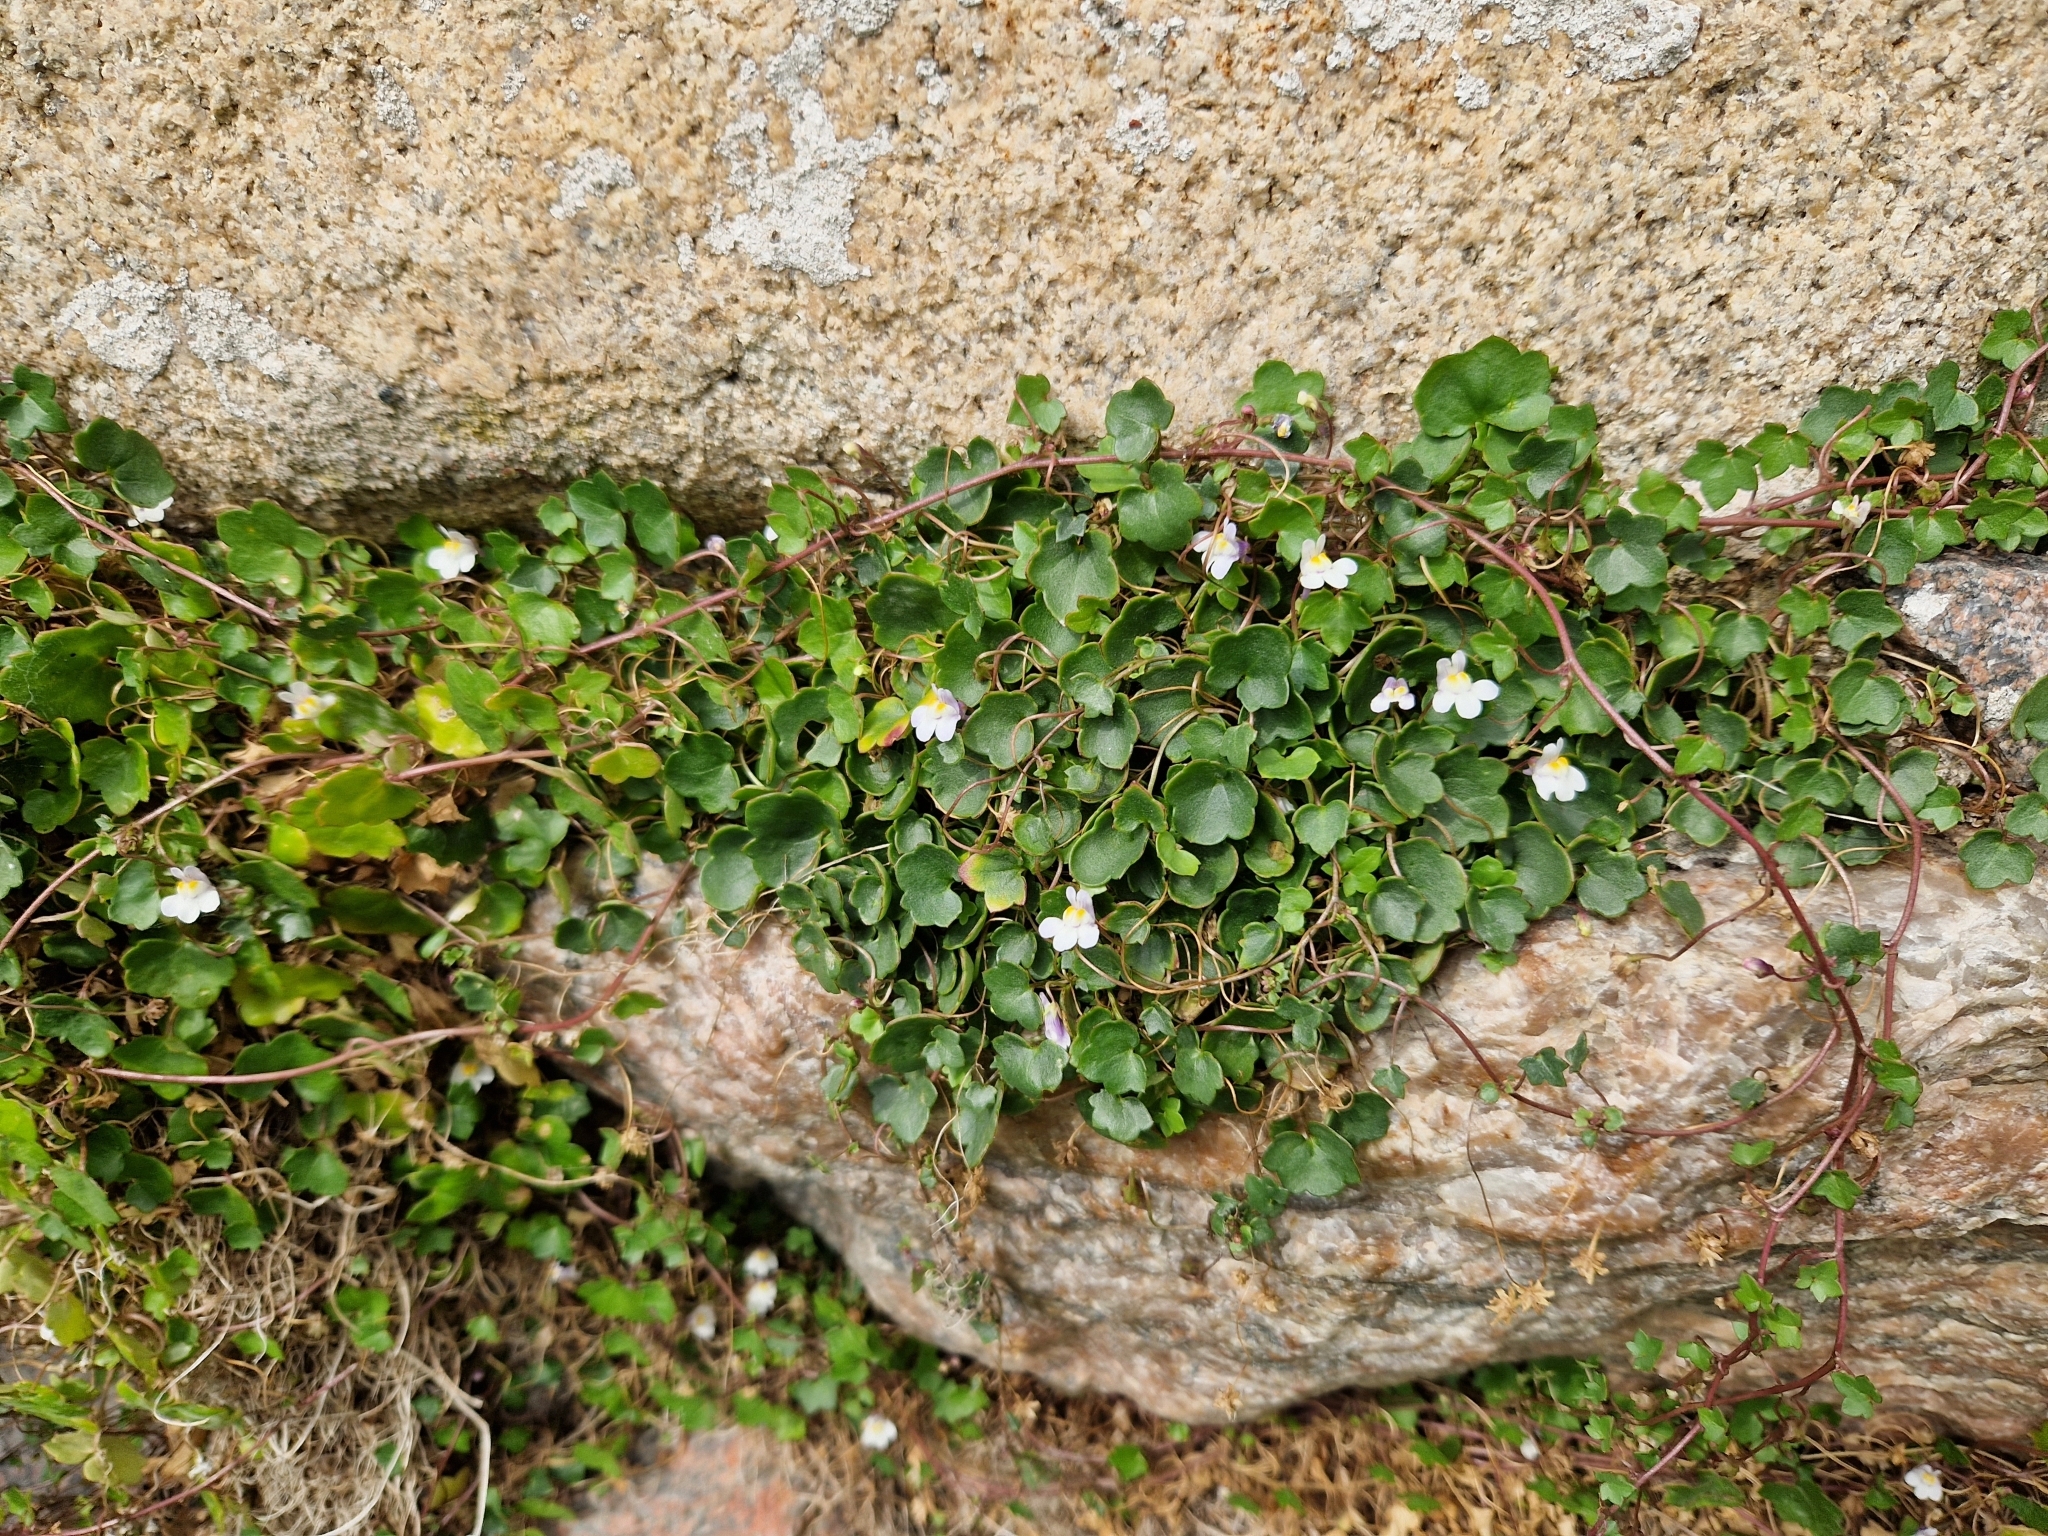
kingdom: Plantae
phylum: Tracheophyta
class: Magnoliopsida
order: Lamiales
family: Plantaginaceae
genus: Cymbalaria
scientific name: Cymbalaria muralis
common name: Ivy-leaved toadflax
